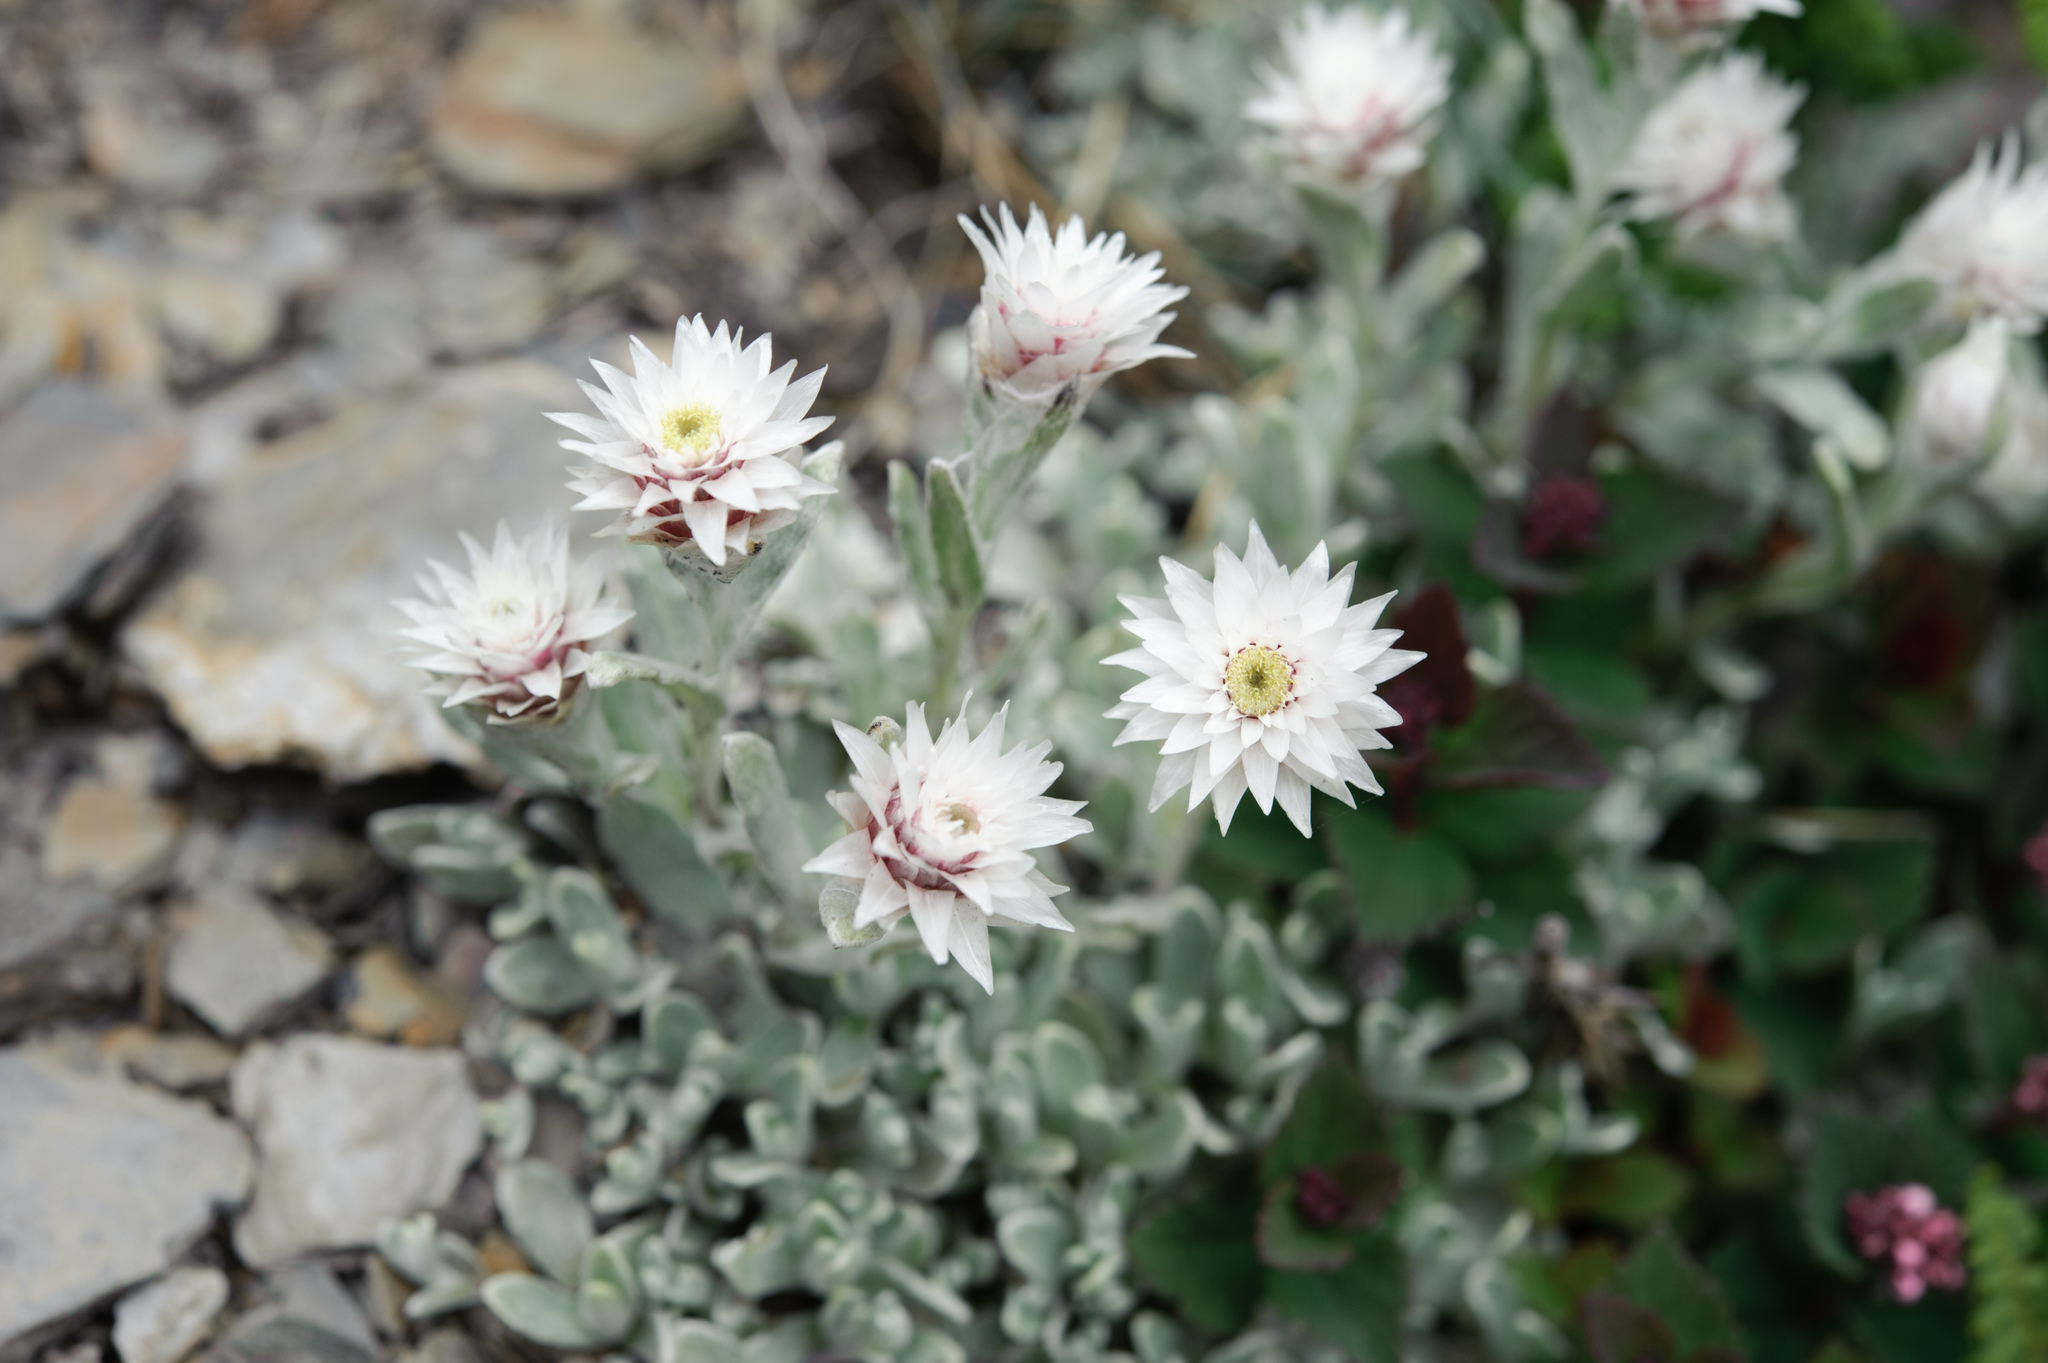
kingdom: Plantae
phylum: Tracheophyta
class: Magnoliopsida
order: Asterales
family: Asteraceae
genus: Anaphalis
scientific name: Anaphalis nepalensis
